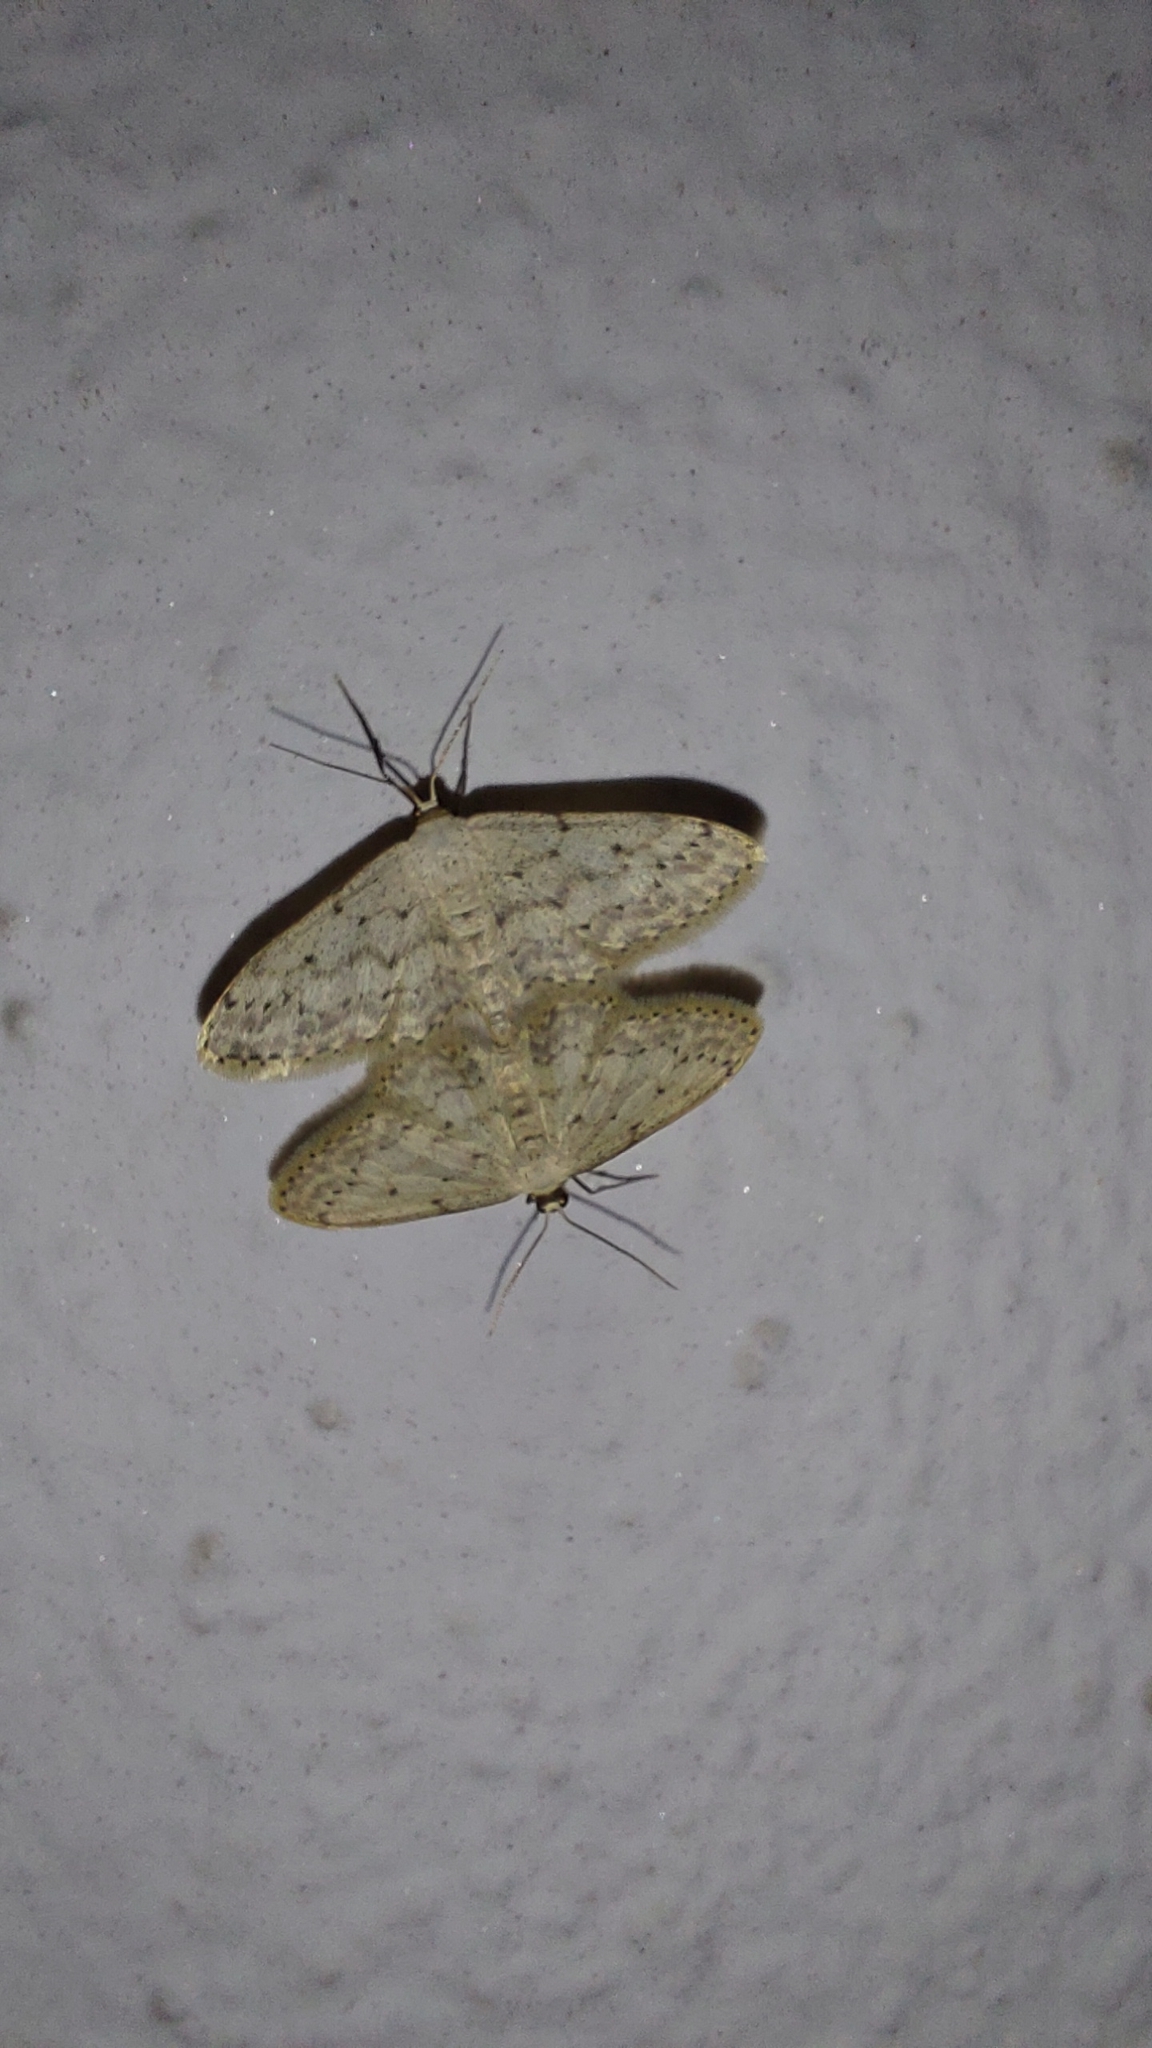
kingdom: Animalia
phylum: Arthropoda
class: Insecta
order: Lepidoptera
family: Geometridae
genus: Idaea
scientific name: Idaea seriata
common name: Small dusty wave
